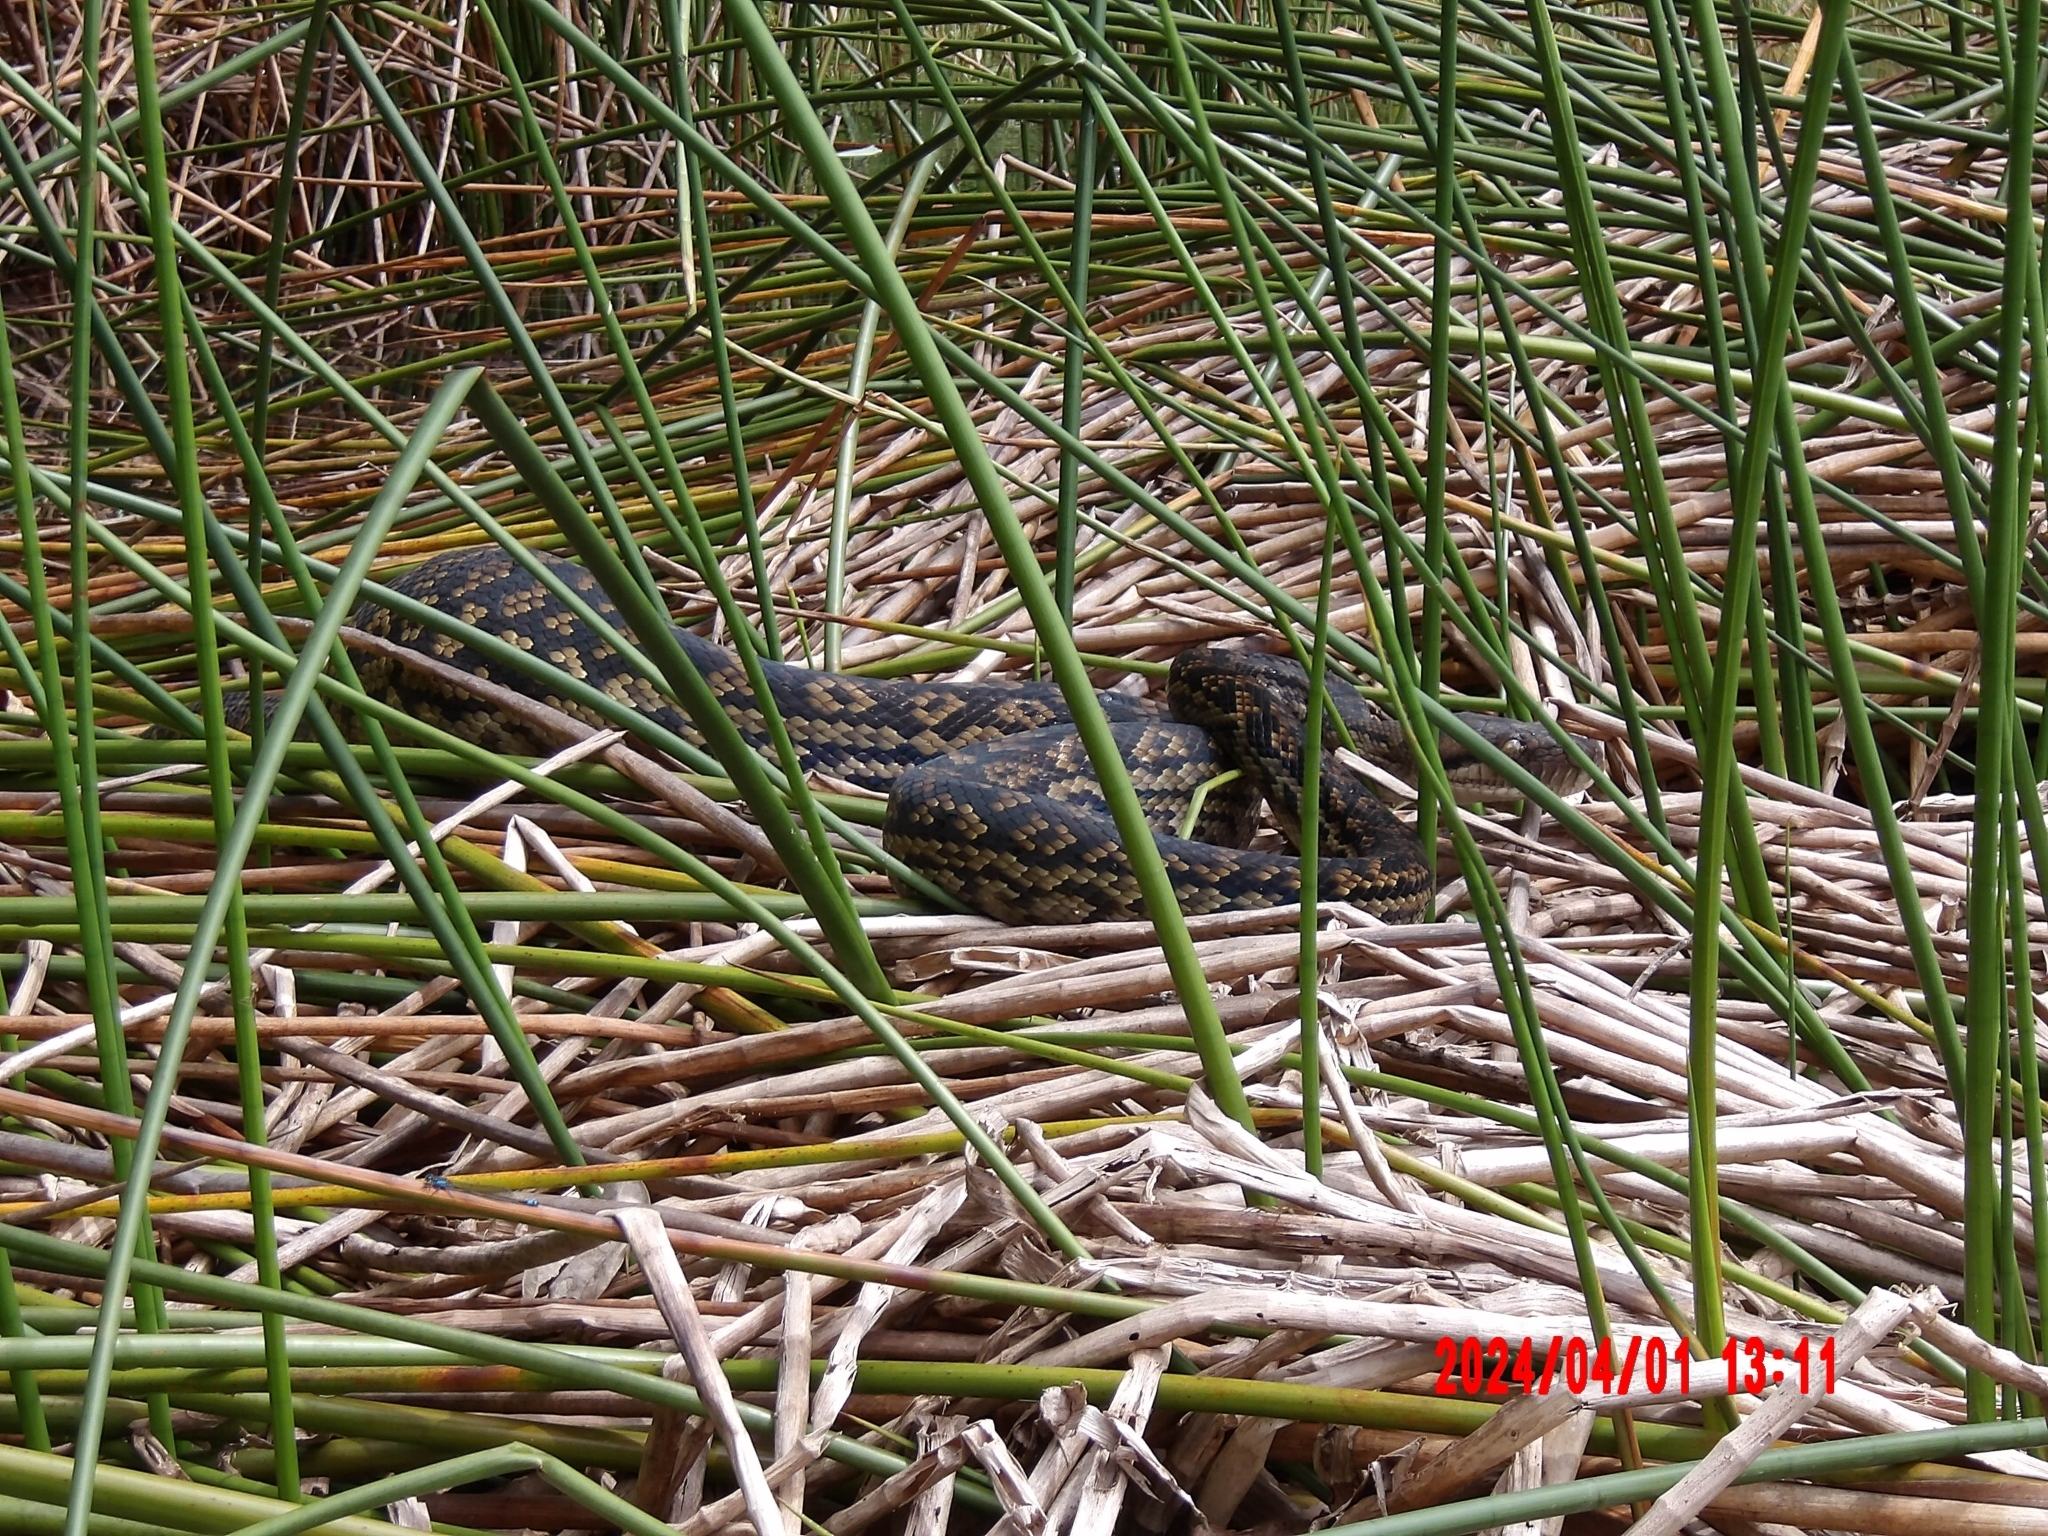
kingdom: Animalia
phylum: Chordata
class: Squamata
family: Pythonidae
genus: Simalia
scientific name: Simalia kinghorni
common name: Scrub python
